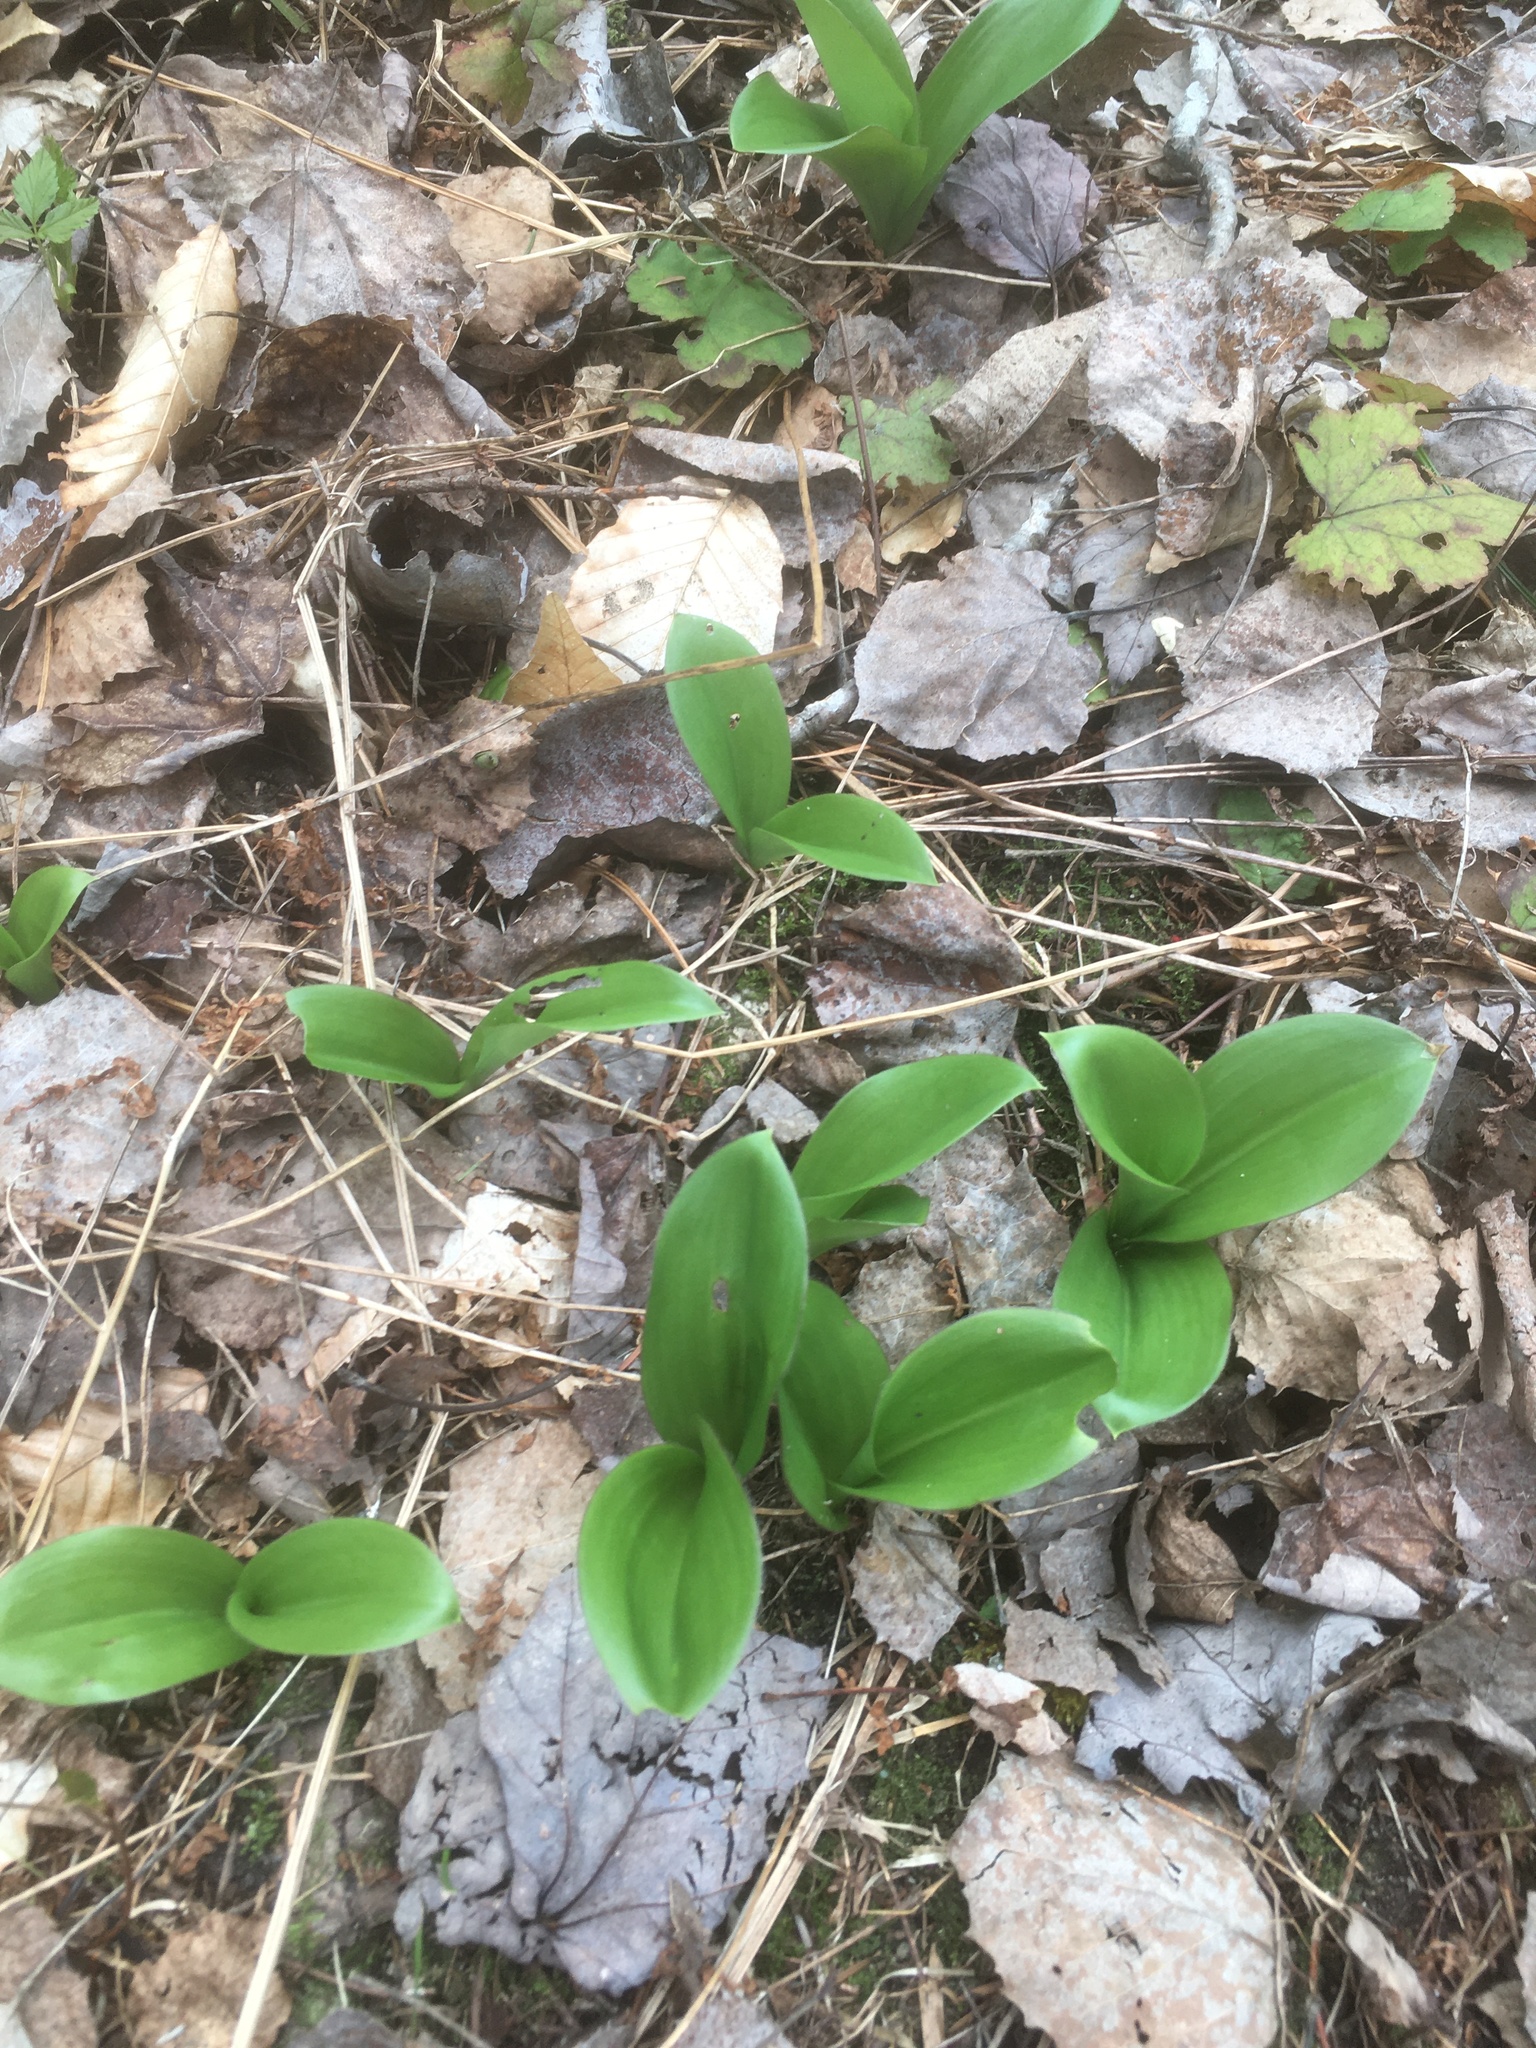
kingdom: Plantae
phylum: Tracheophyta
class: Liliopsida
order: Liliales
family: Liliaceae
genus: Clintonia
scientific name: Clintonia borealis
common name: Yellow clintonia
